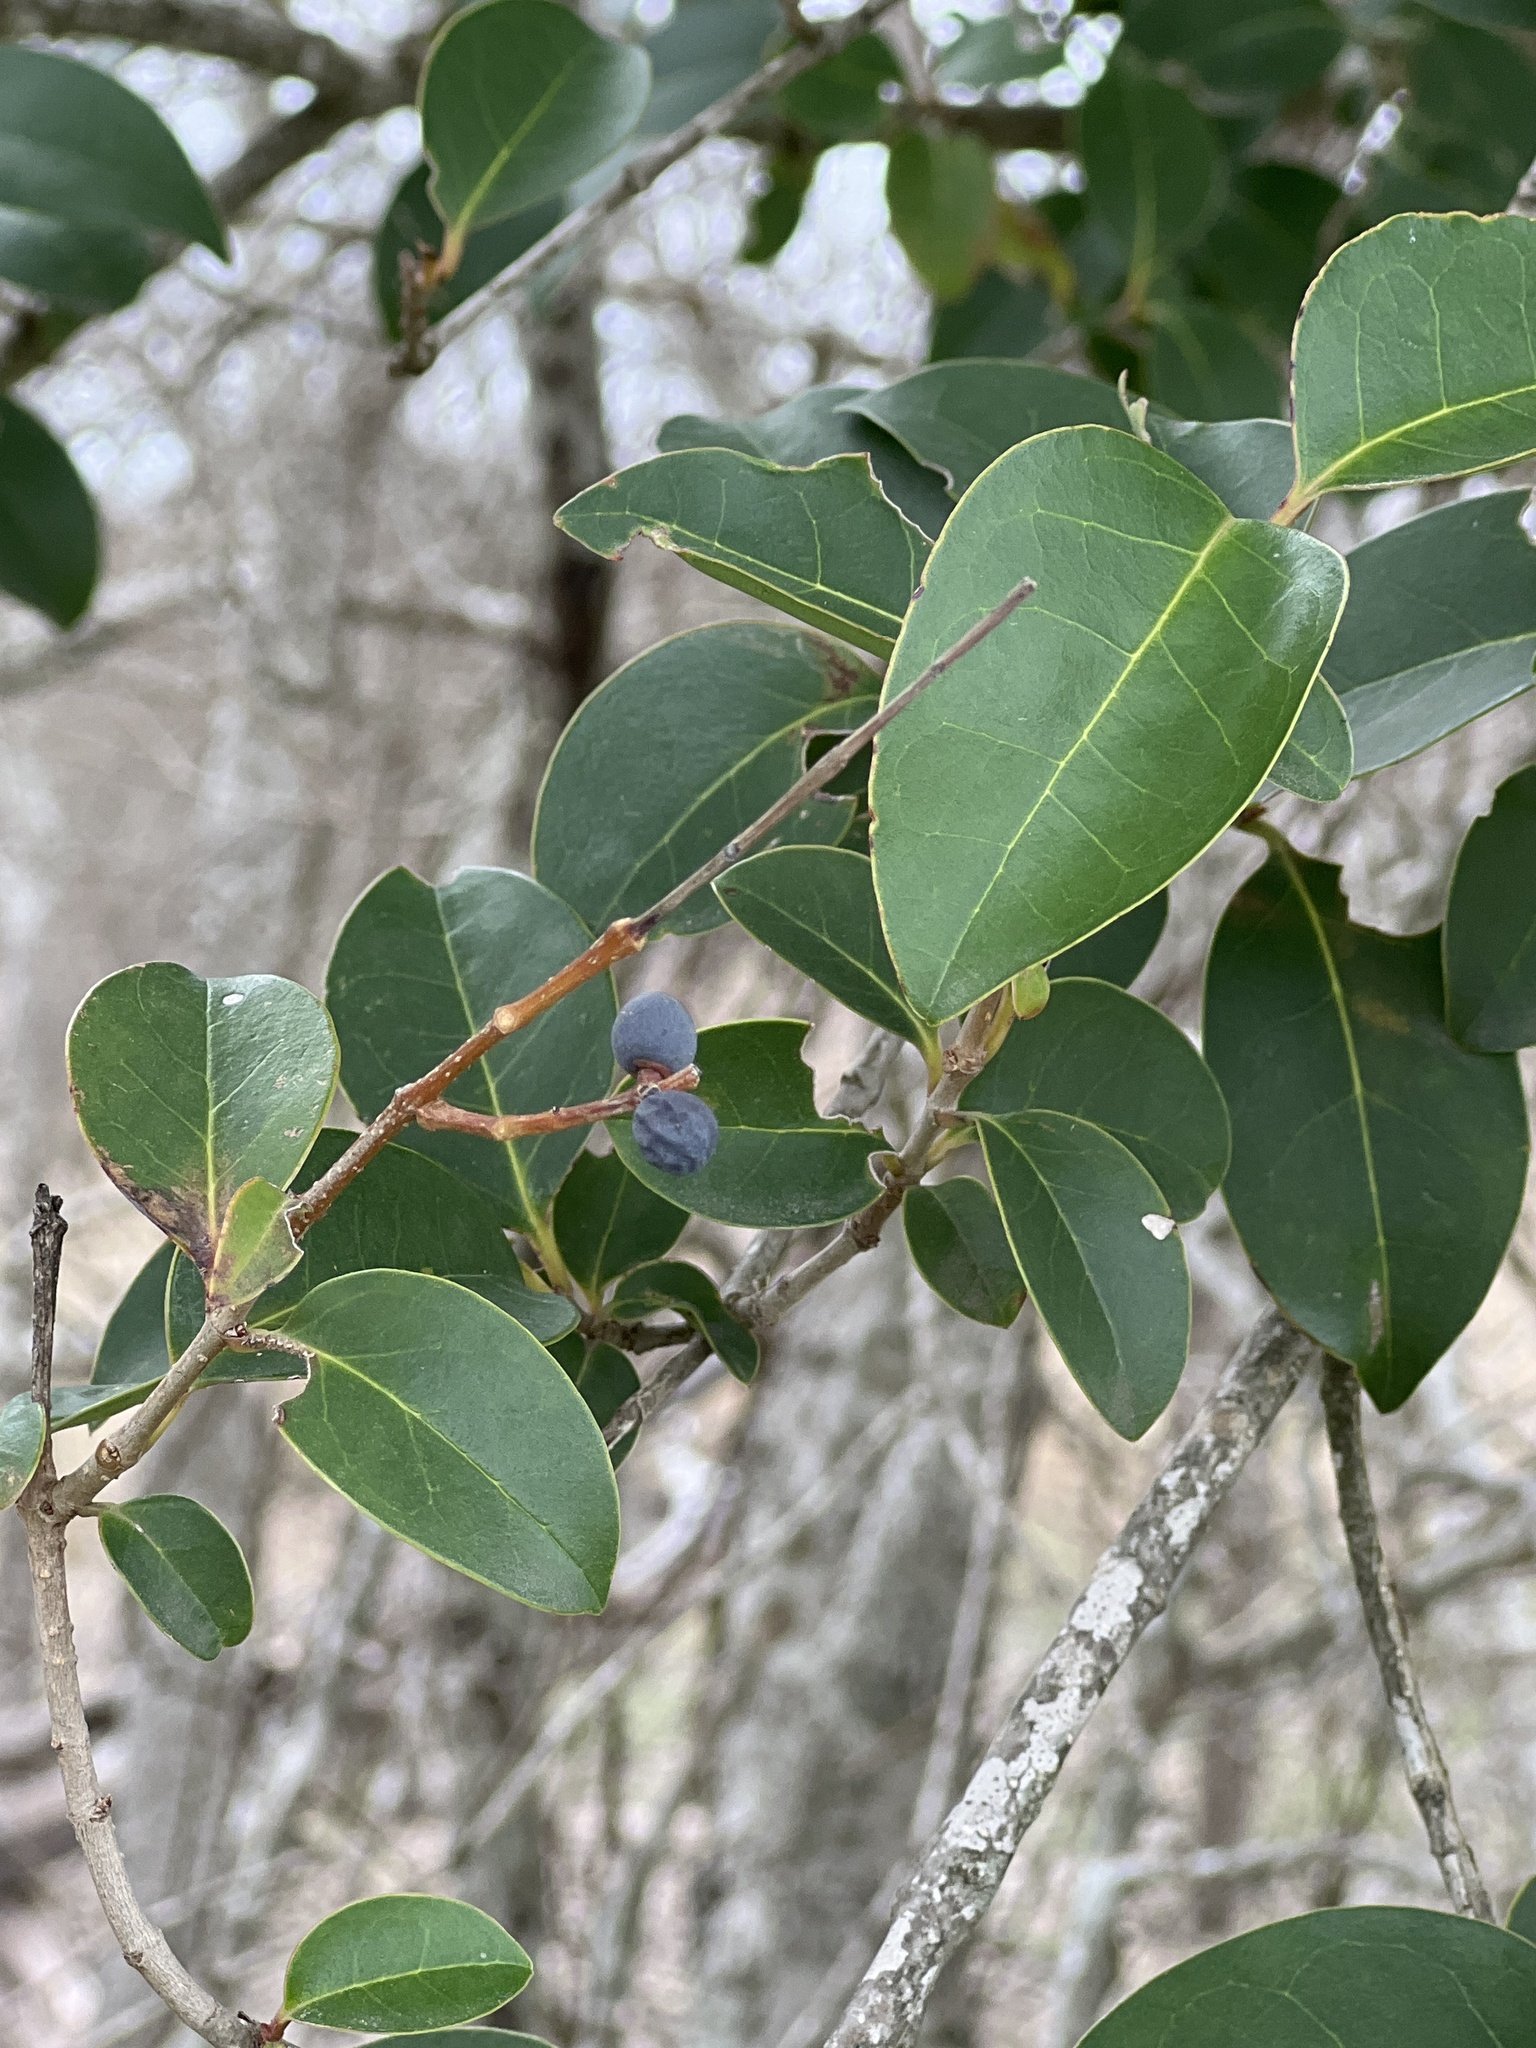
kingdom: Plantae
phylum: Tracheophyta
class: Magnoliopsida
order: Lamiales
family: Oleaceae
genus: Ligustrum
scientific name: Ligustrum lucidum
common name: Glossy privet
